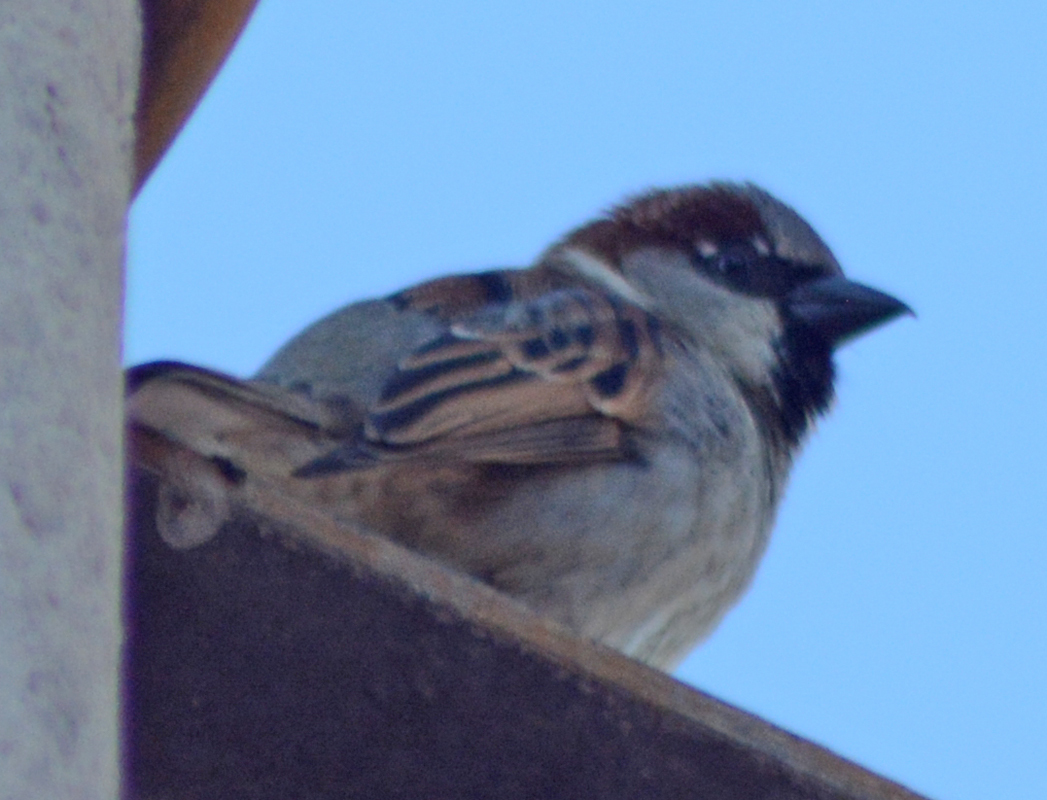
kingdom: Animalia
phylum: Chordata
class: Aves
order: Passeriformes
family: Passeridae
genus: Passer
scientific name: Passer domesticus
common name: House sparrow
